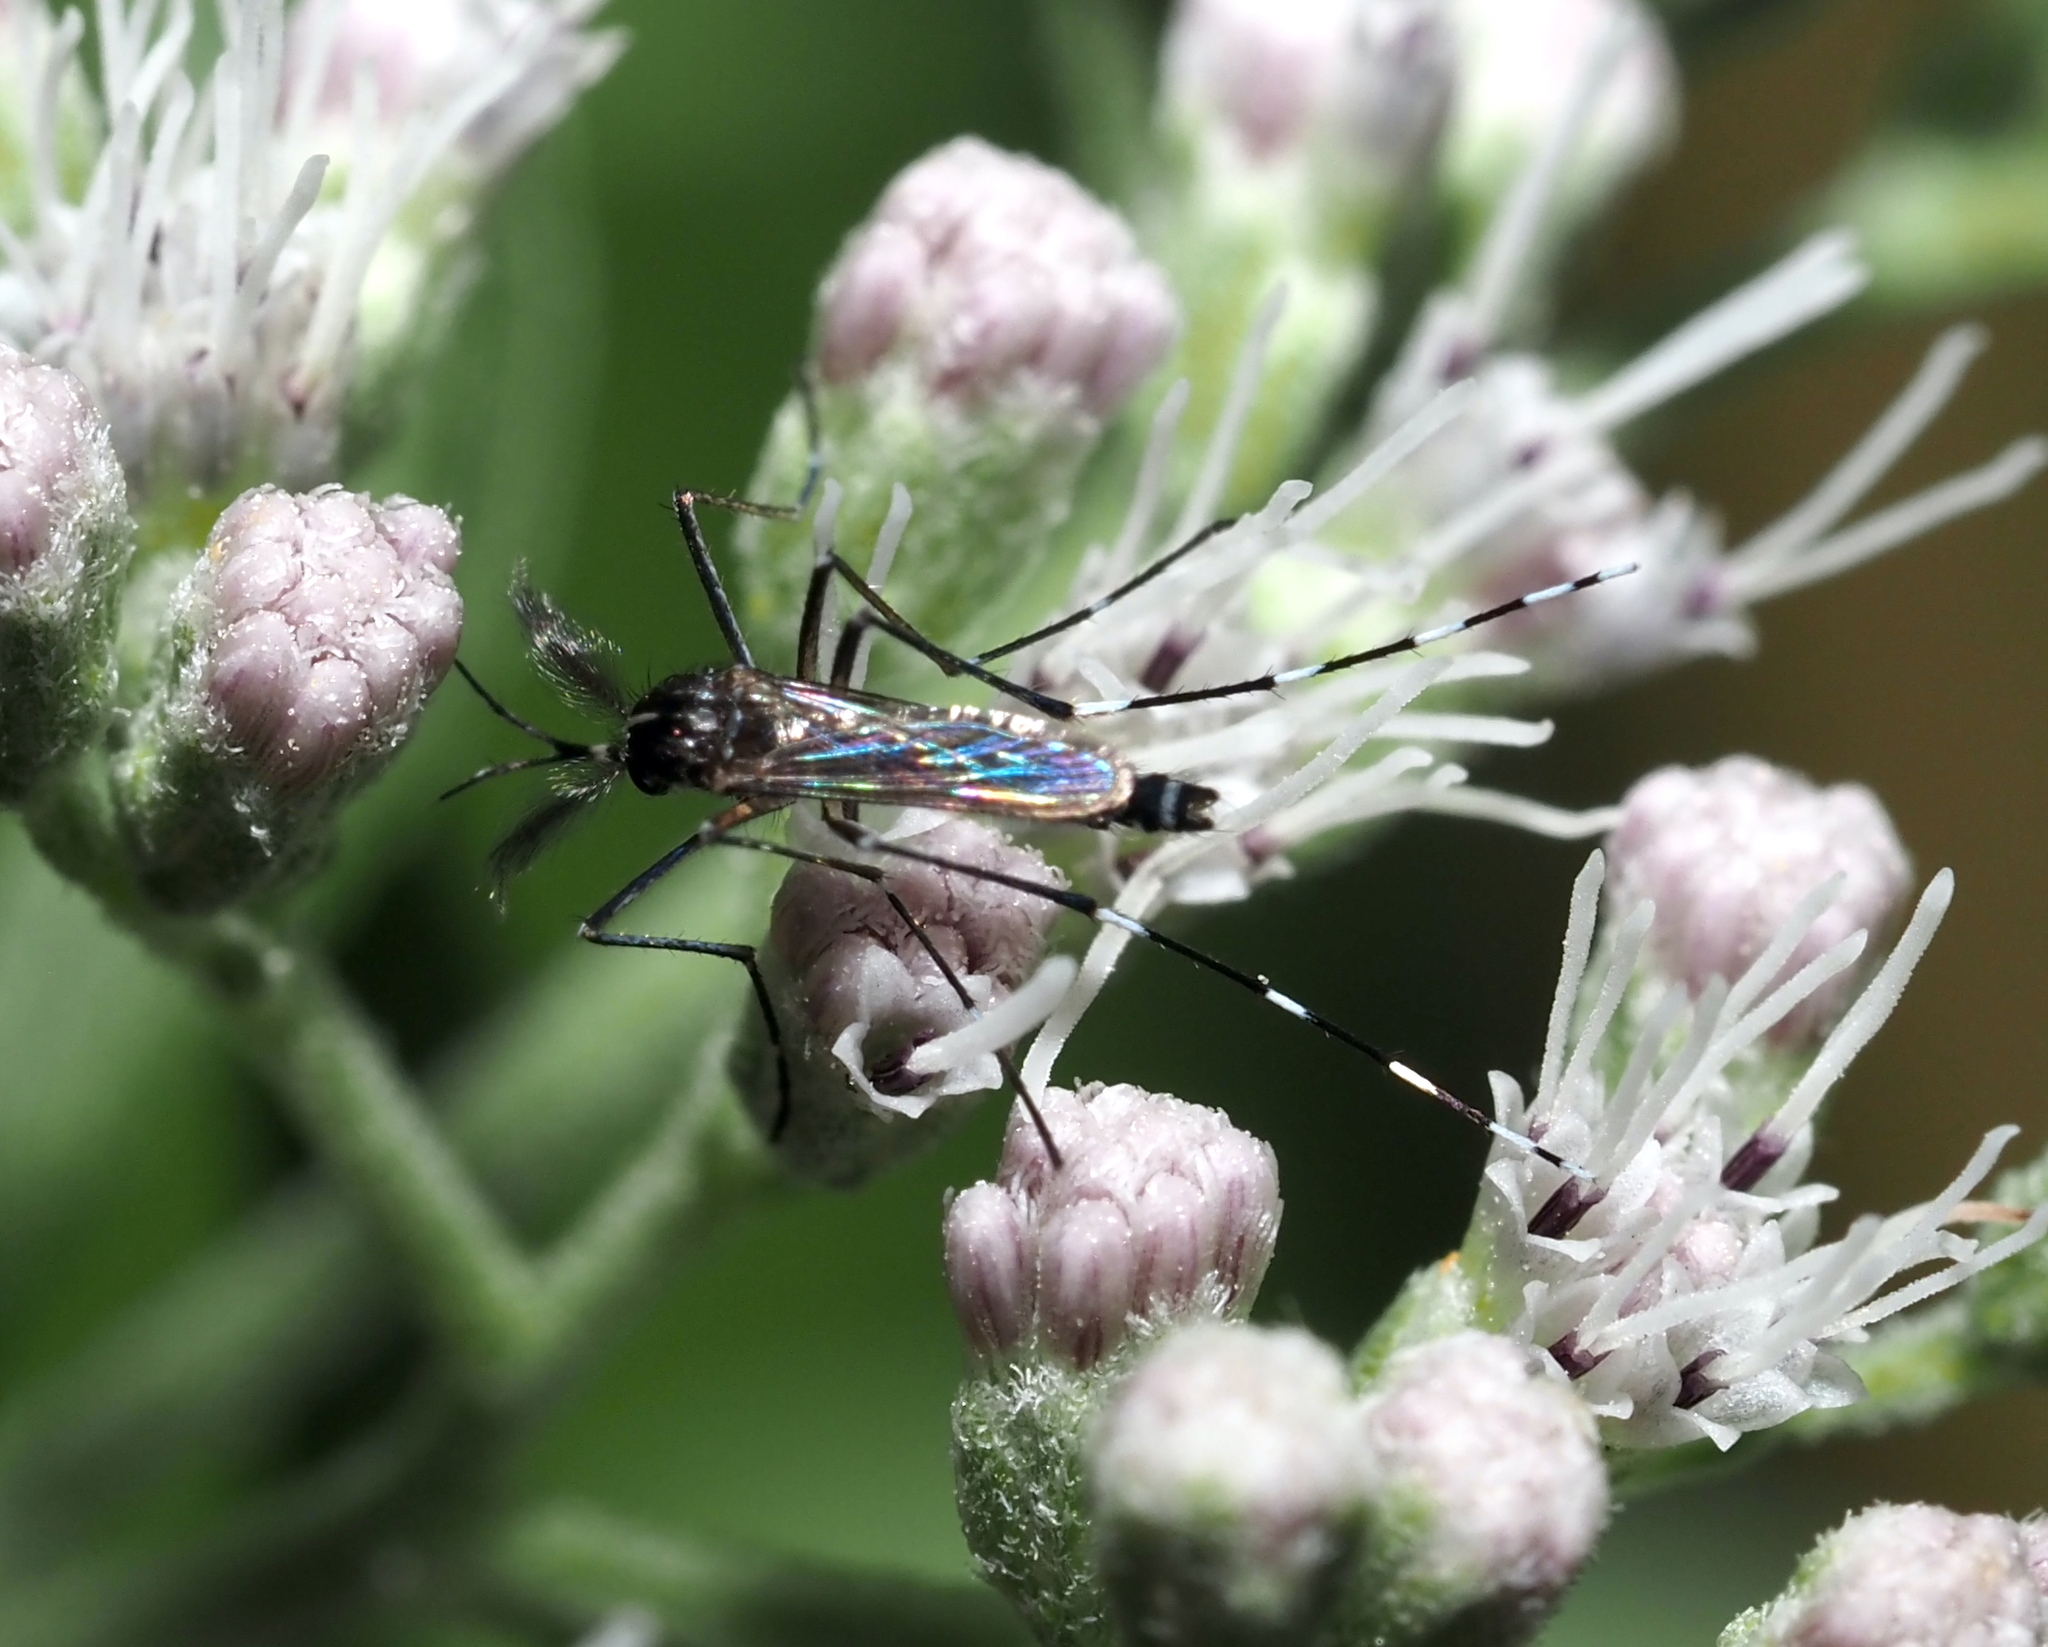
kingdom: Animalia
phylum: Arthropoda
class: Insecta
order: Diptera
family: Culicidae
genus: Aedes
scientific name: Aedes albopictus
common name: Tiger mosquito
